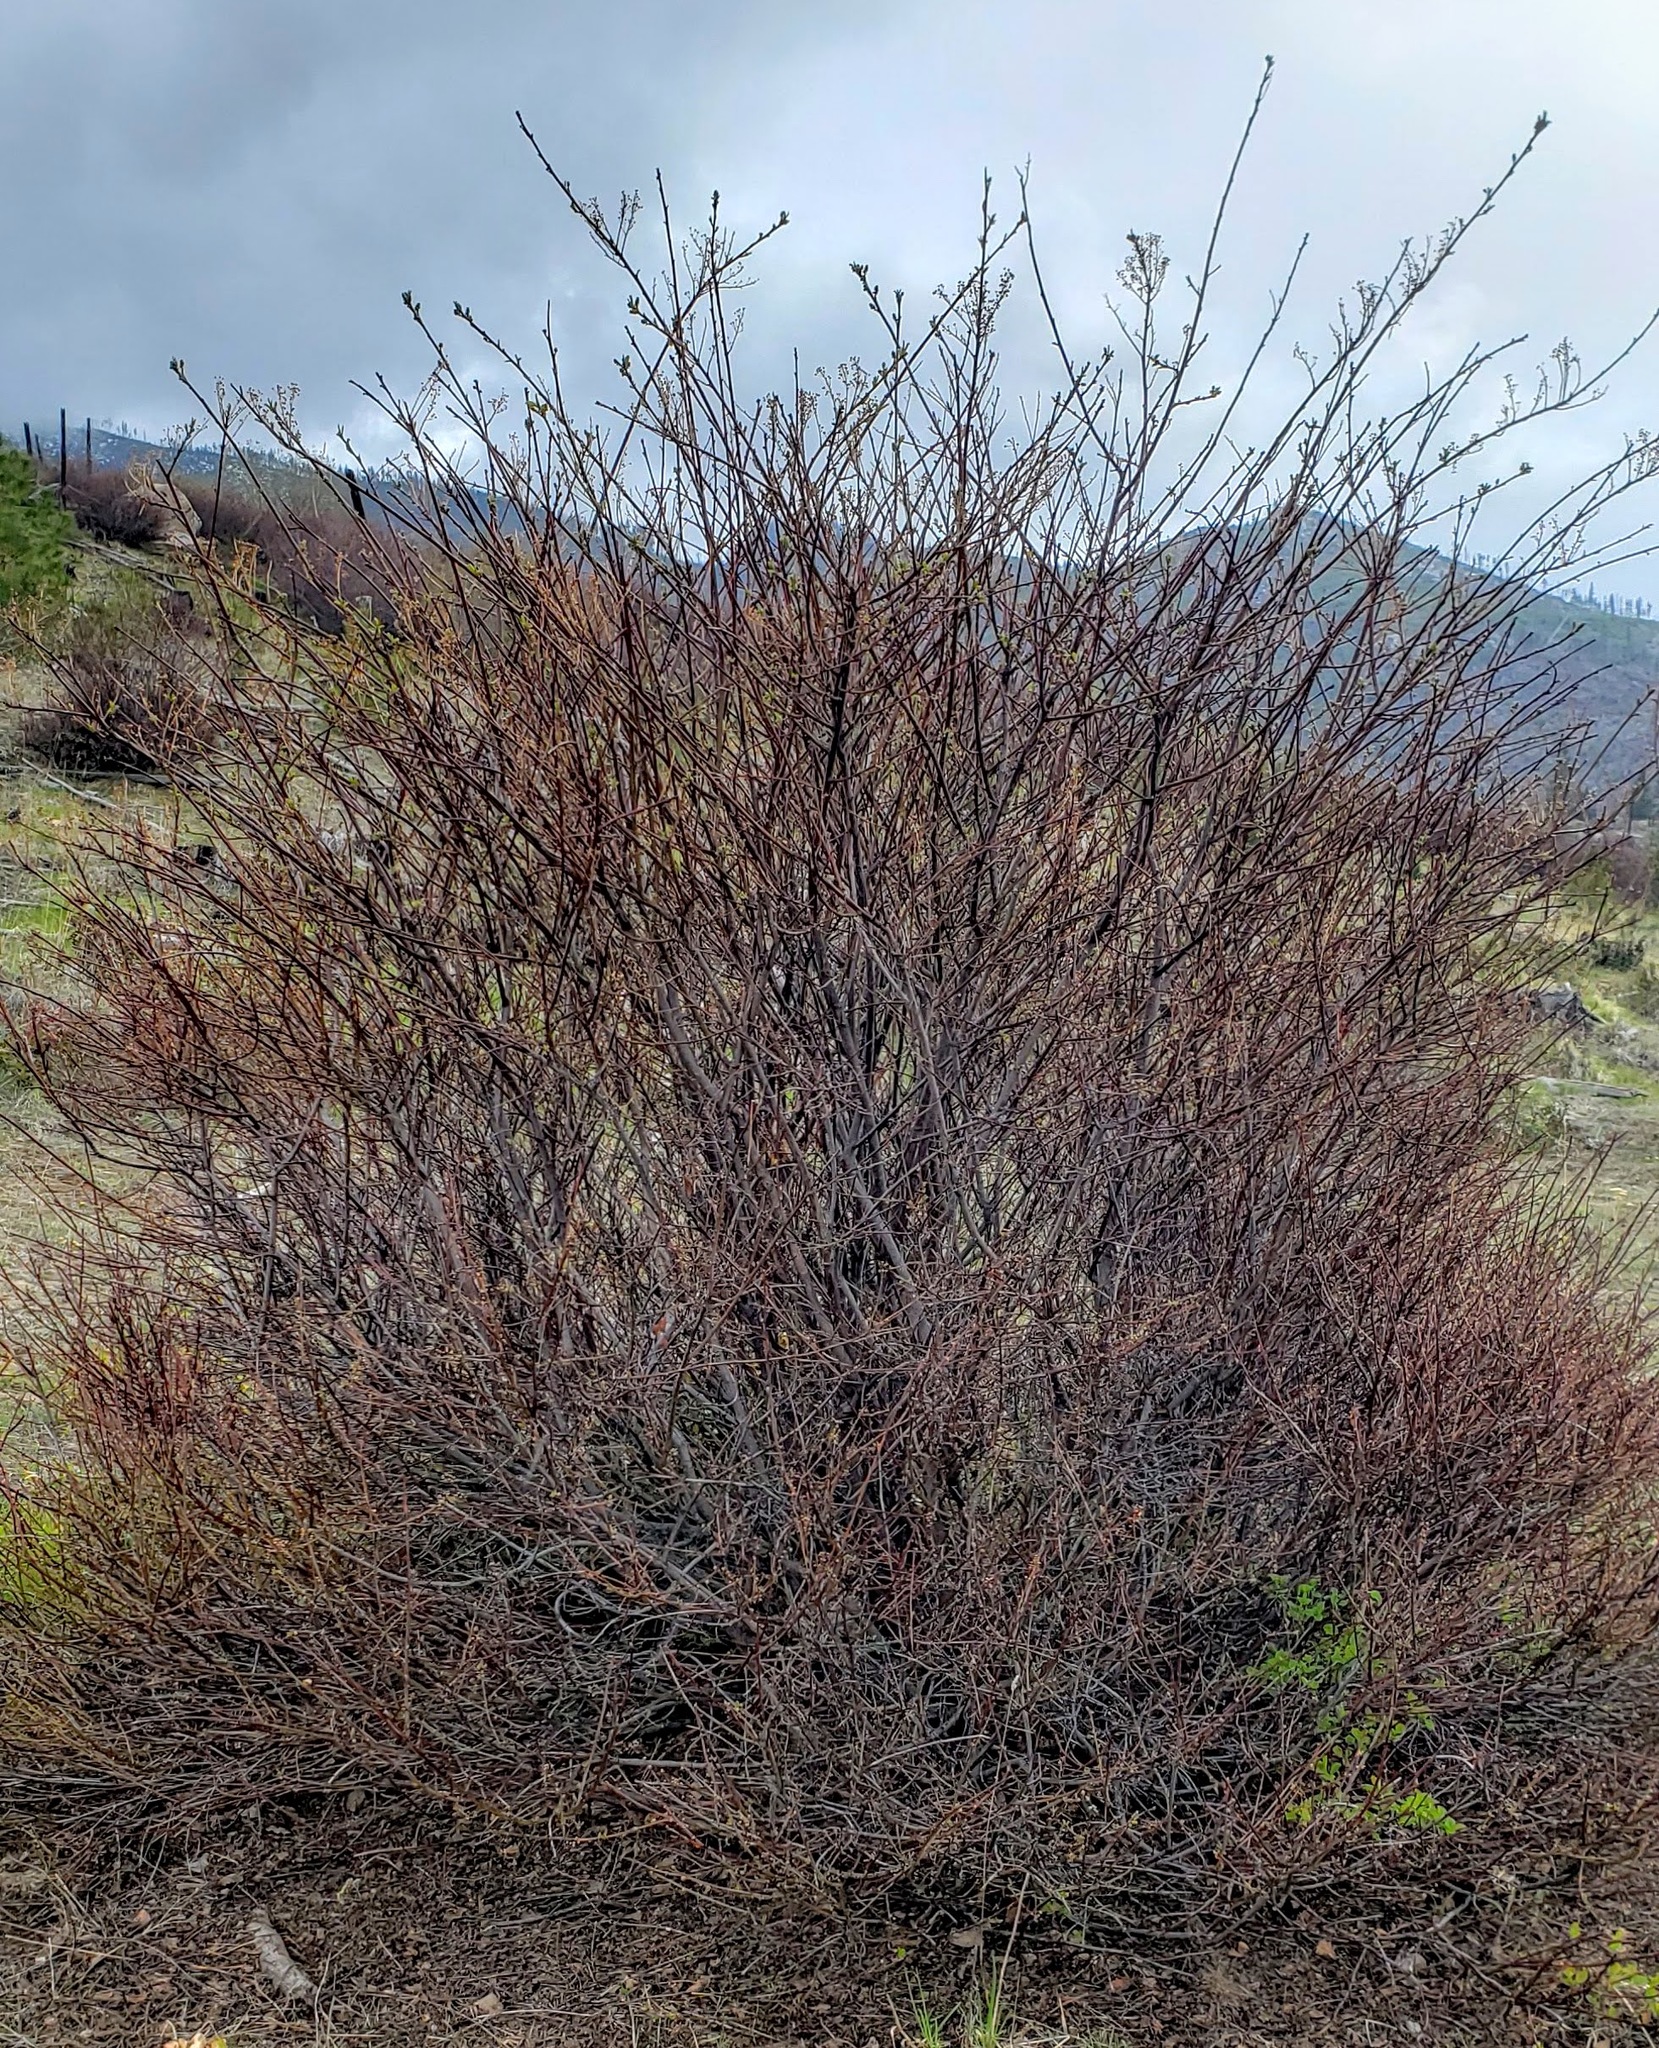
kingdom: Plantae
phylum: Tracheophyta
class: Magnoliopsida
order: Rosales
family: Rhamnaceae
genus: Ceanothus
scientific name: Ceanothus sanguineus
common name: Teatree
